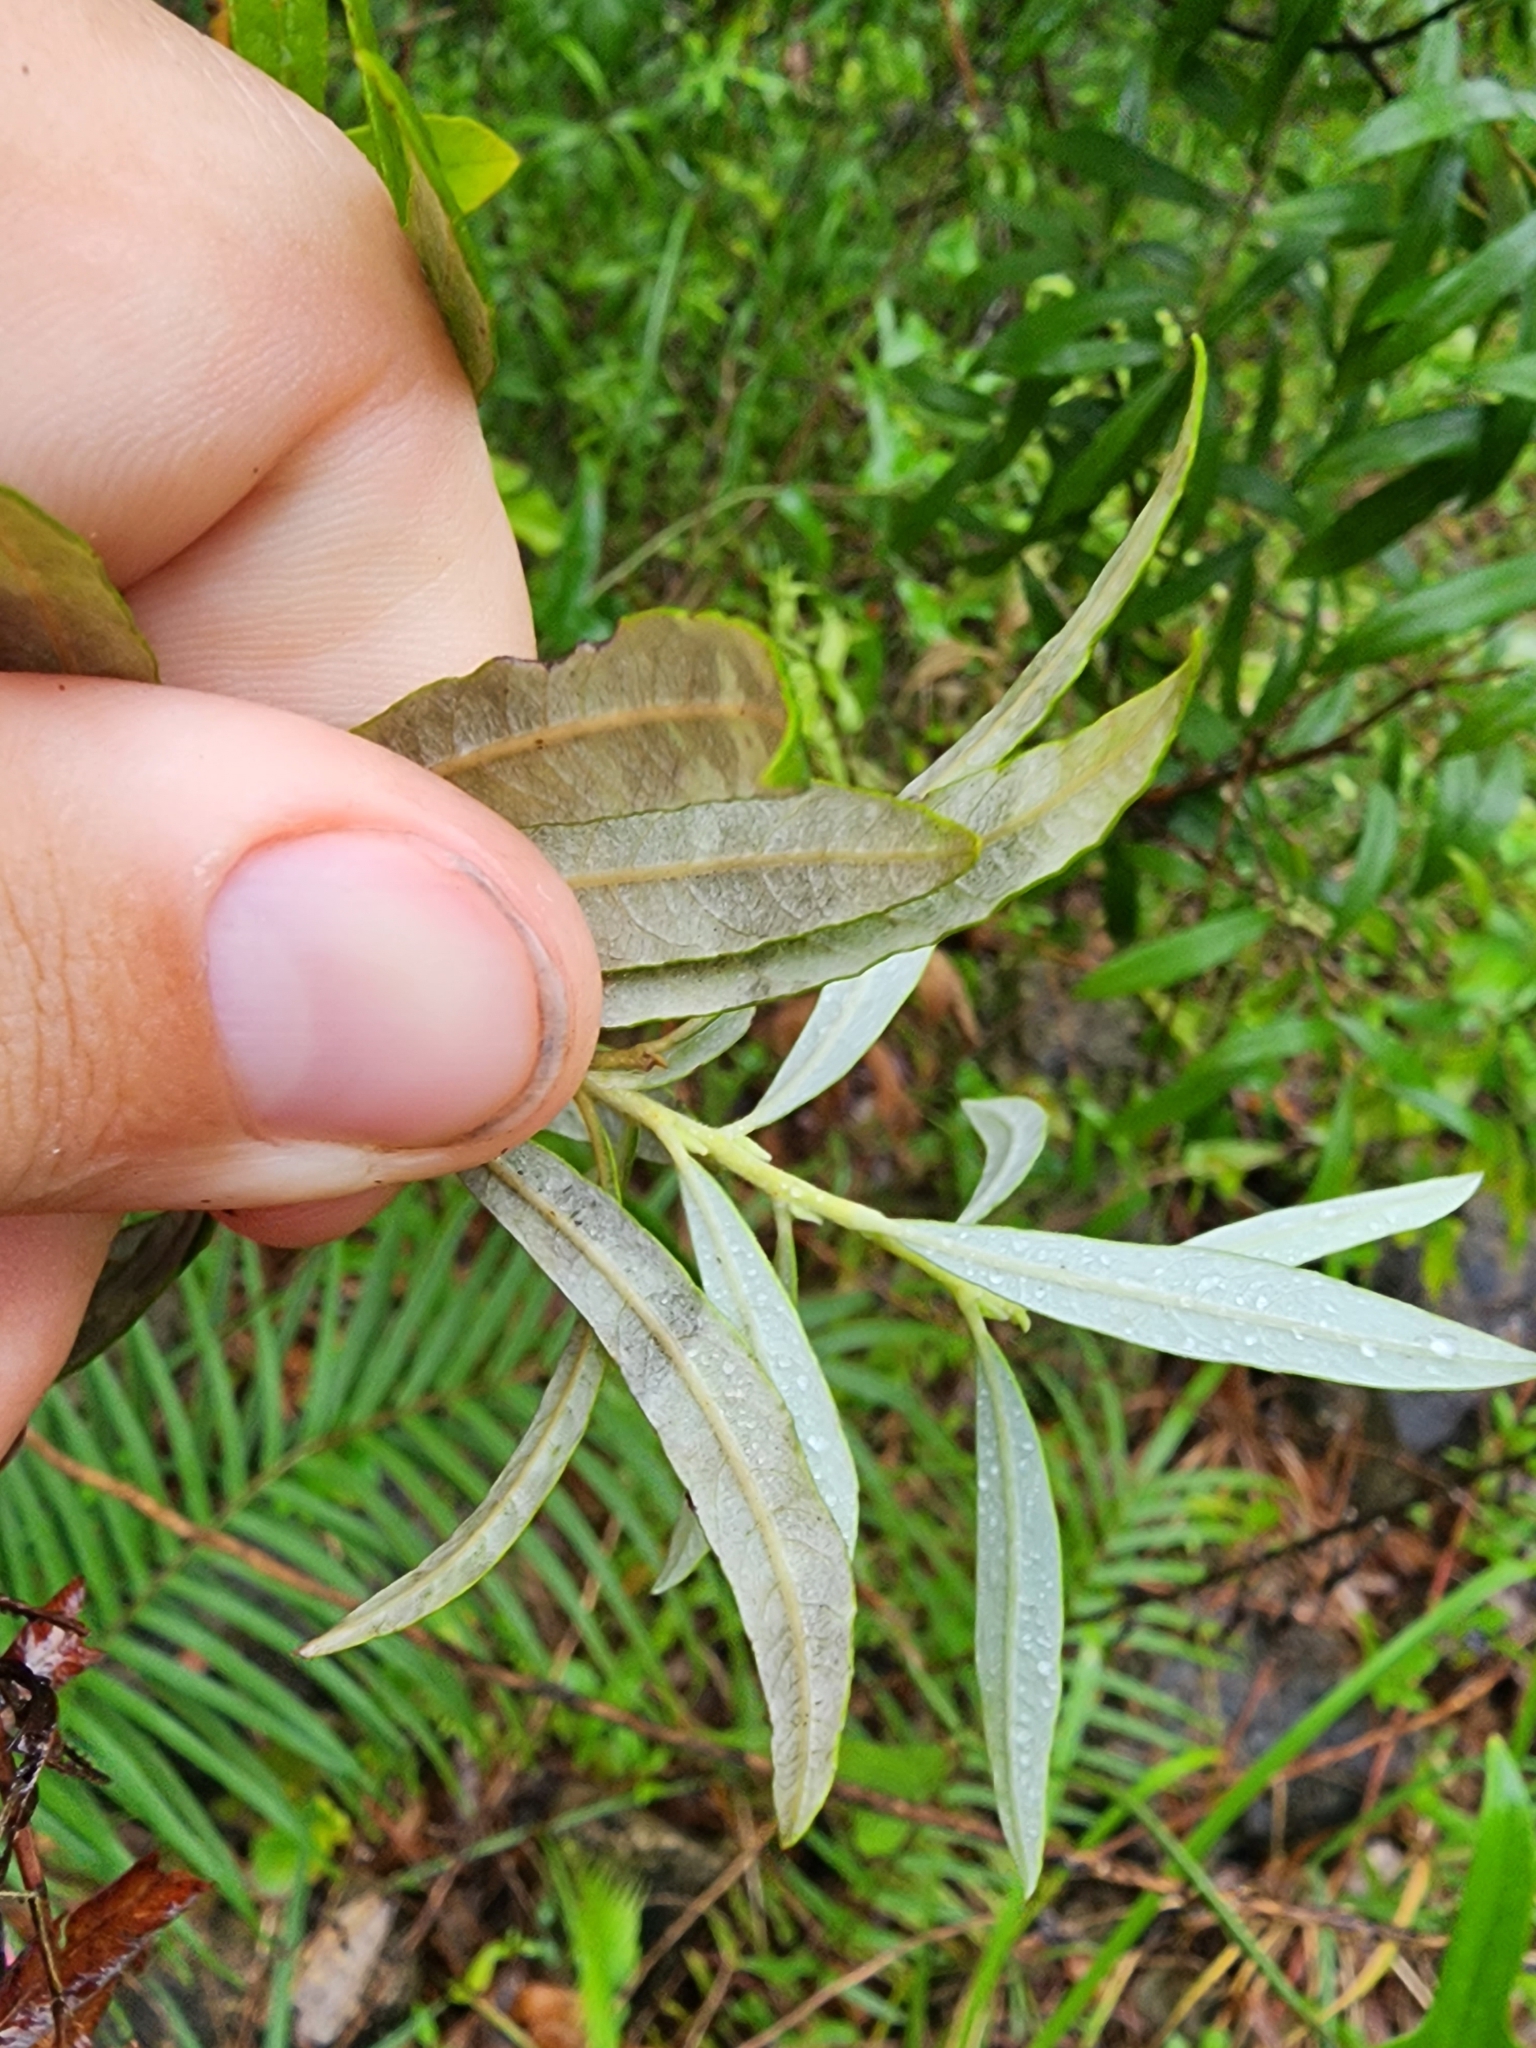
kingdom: Plantae
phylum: Tracheophyta
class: Magnoliopsida
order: Malpighiales
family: Salicaceae
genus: Salix
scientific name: Salix humilis
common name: Prairie willow
